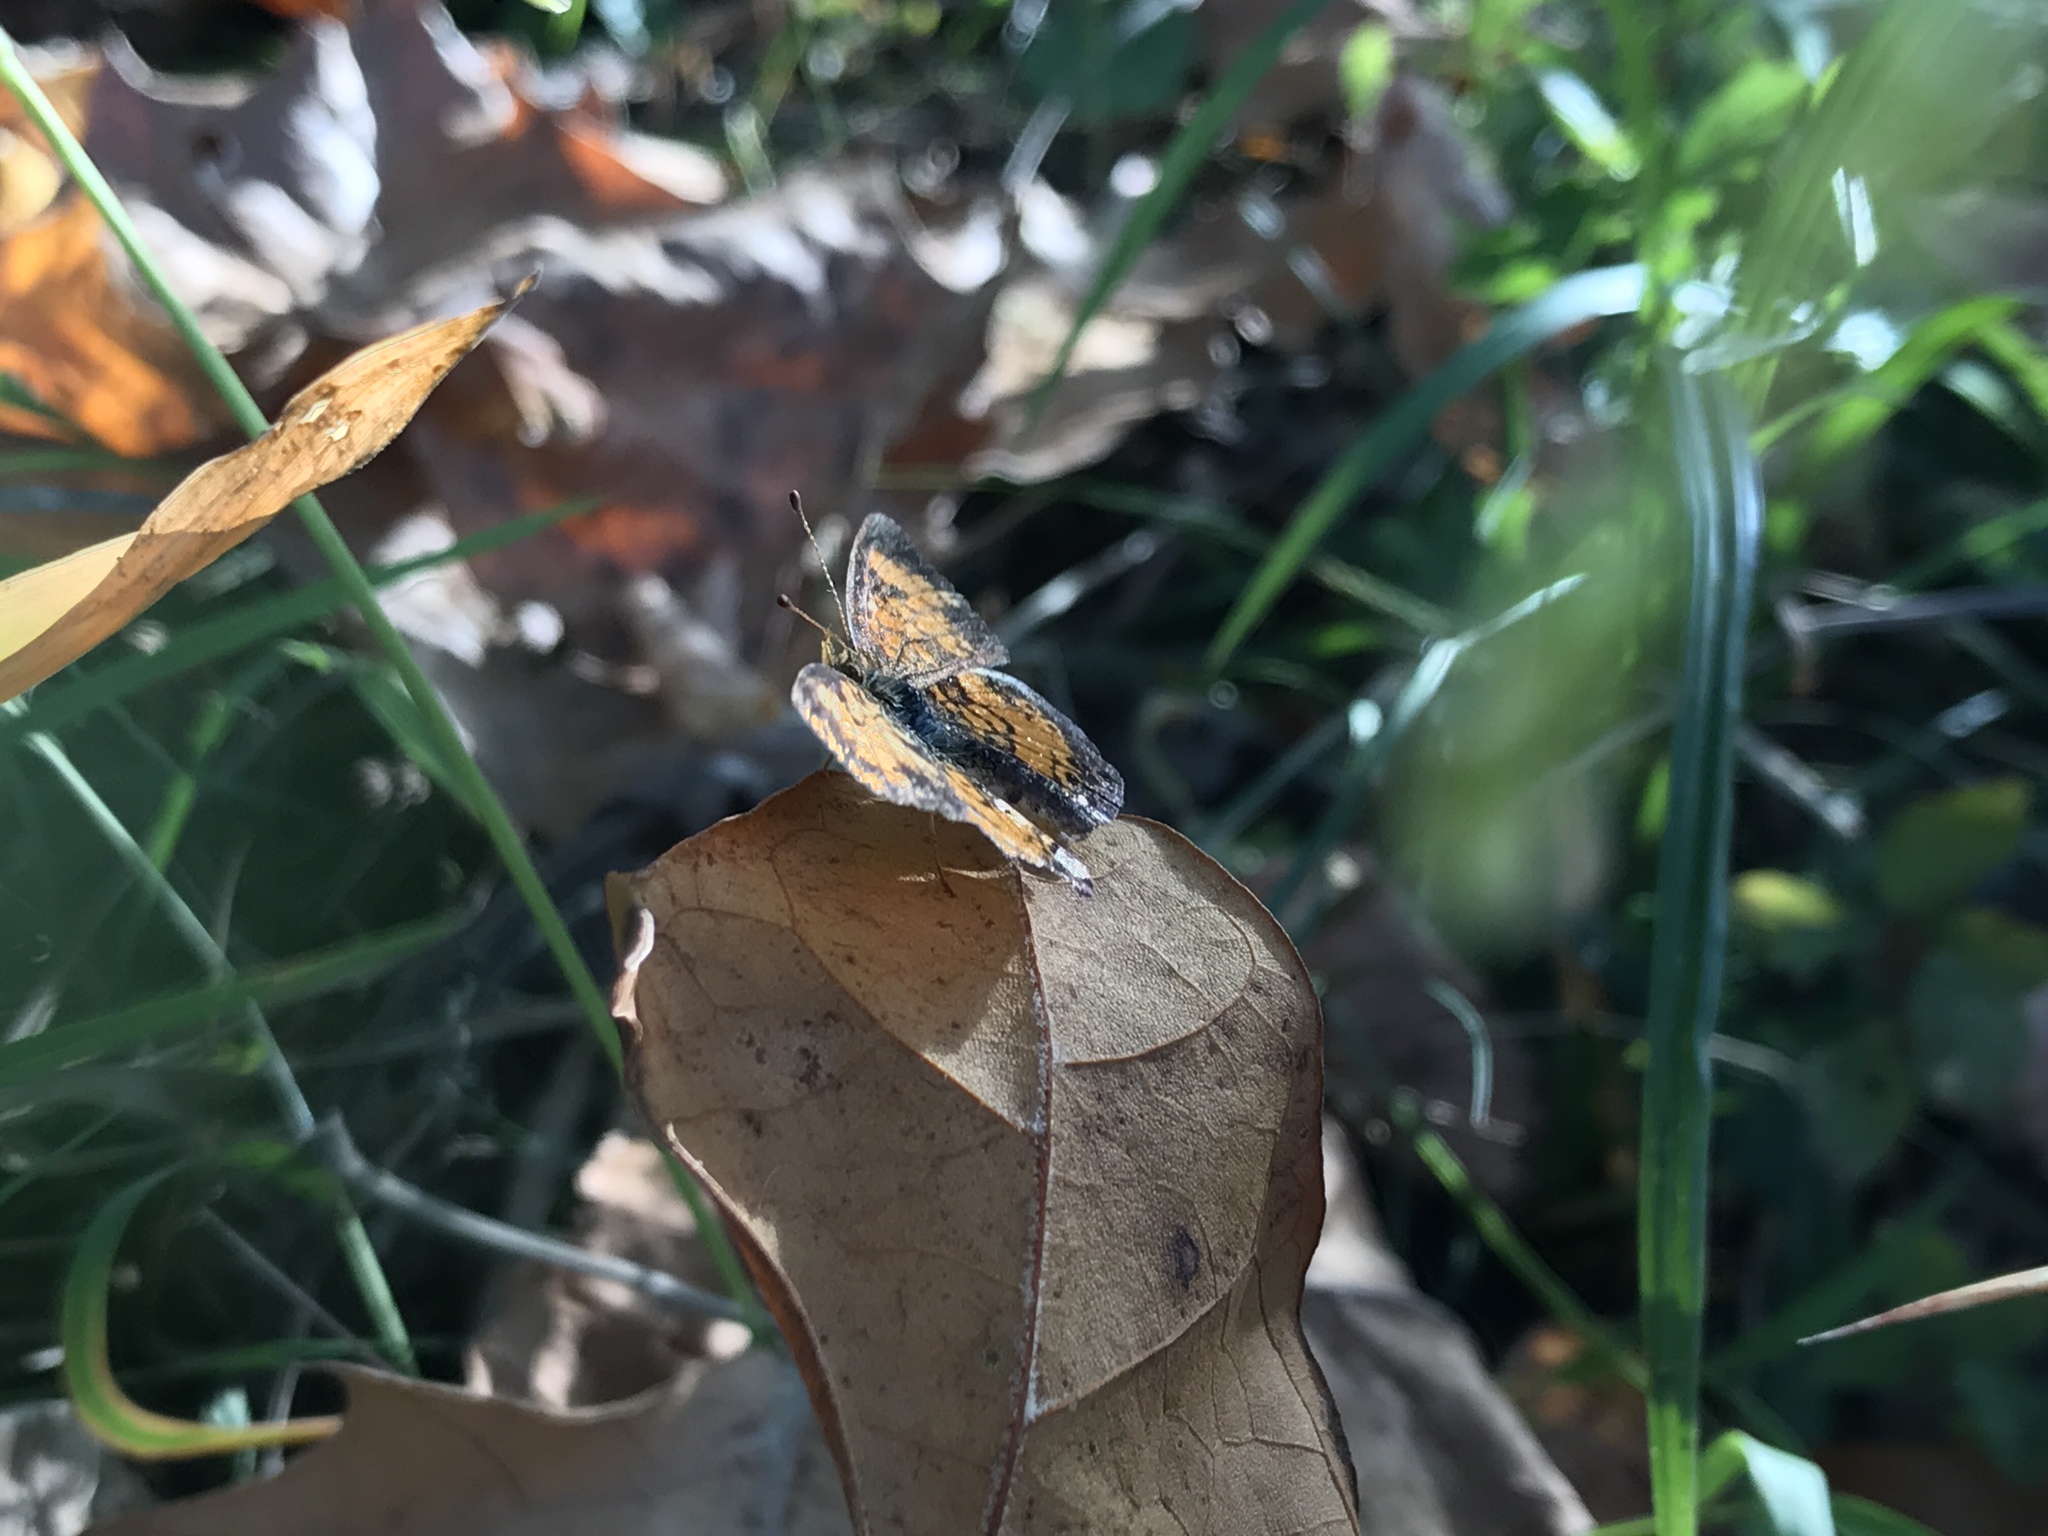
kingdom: Animalia
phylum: Arthropoda
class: Insecta
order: Lepidoptera
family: Nymphalidae
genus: Phyciodes
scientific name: Phyciodes tharos
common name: Pearl crescent
